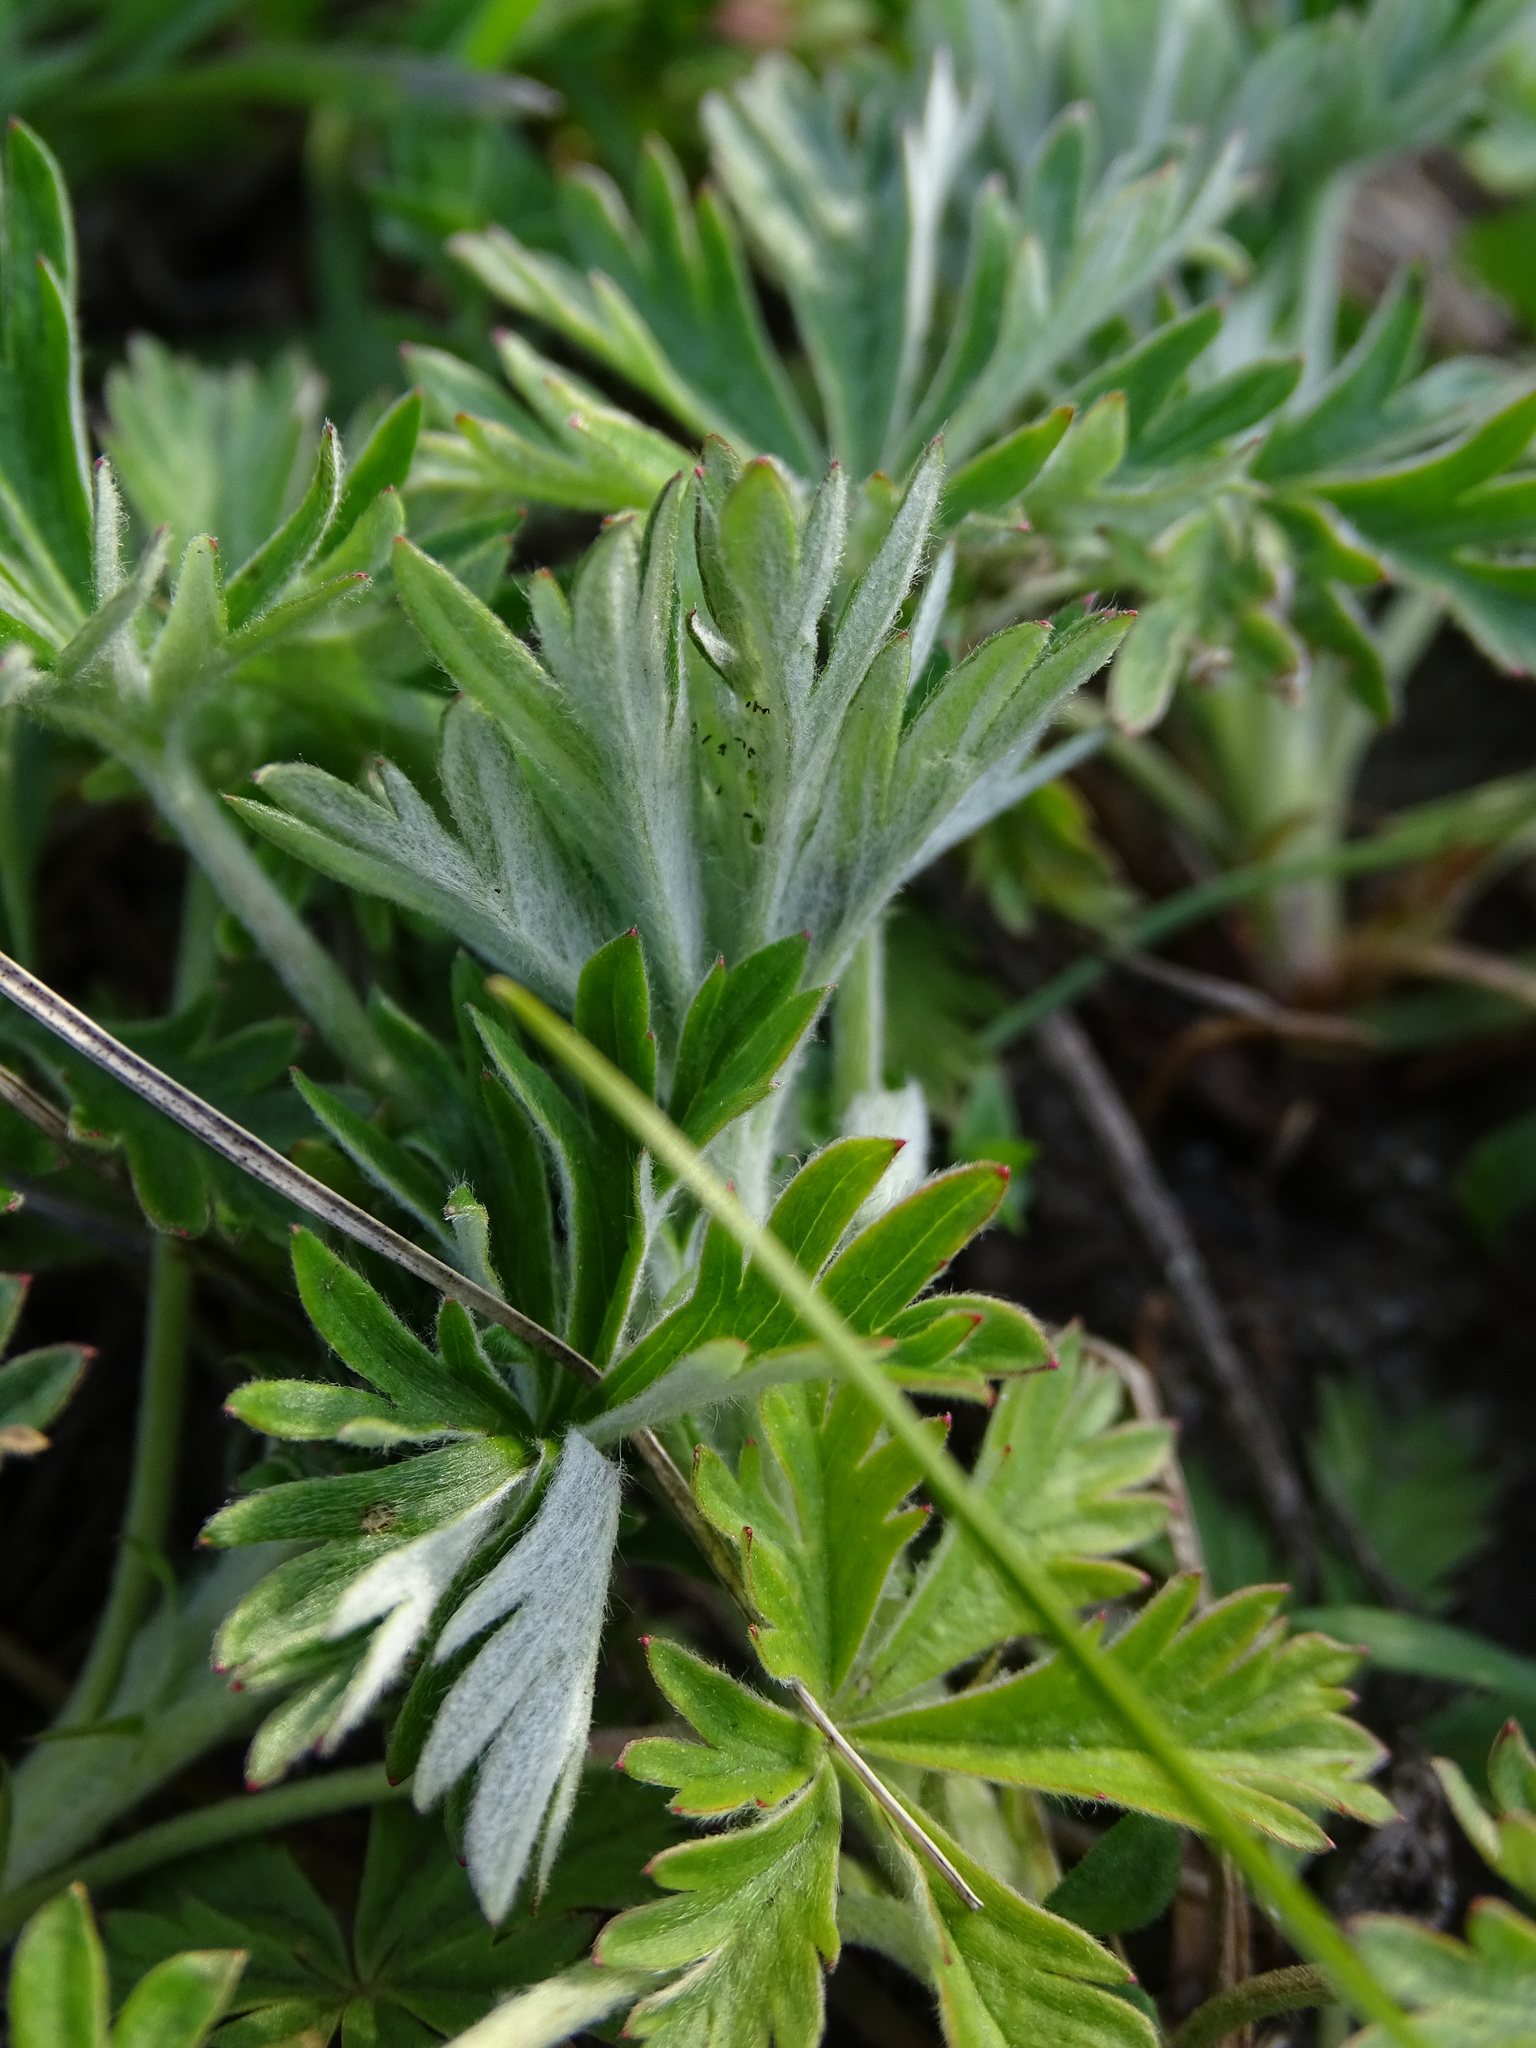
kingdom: Plantae
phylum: Tracheophyta
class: Magnoliopsida
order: Rosales
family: Rosaceae
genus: Potentilla
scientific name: Potentilla argentea
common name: Hoary cinquefoil
